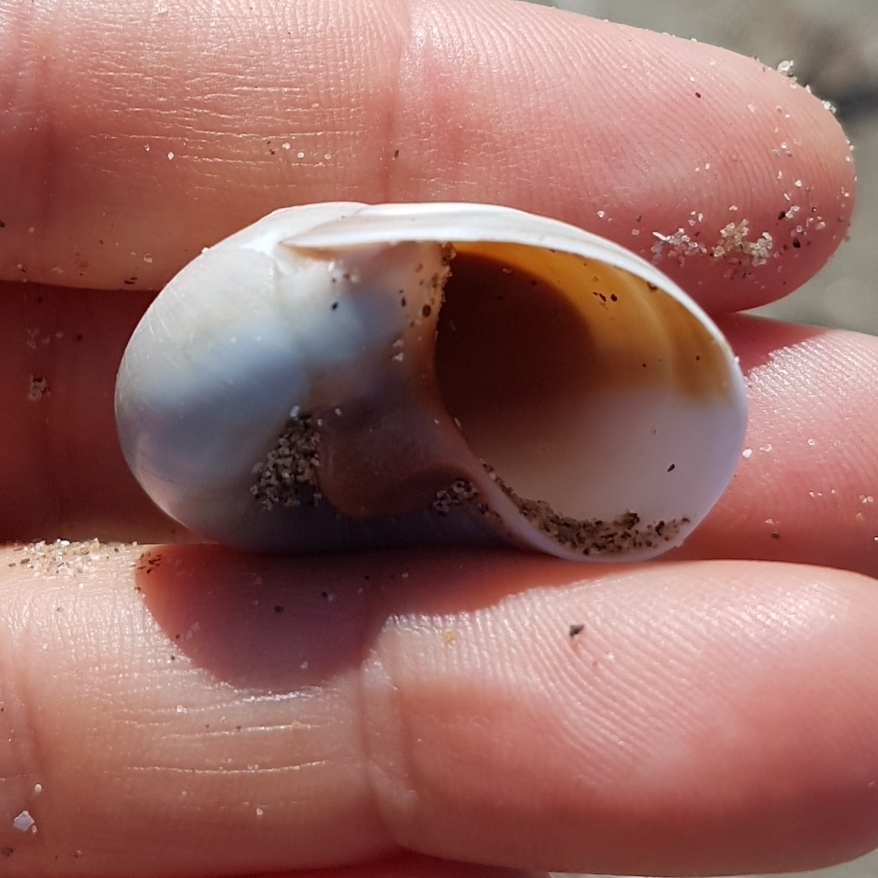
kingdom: Animalia
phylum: Mollusca
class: Gastropoda
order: Littorinimorpha
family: Naticidae
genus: Neverita
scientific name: Neverita josephinia
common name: Josephine's moonsnail
